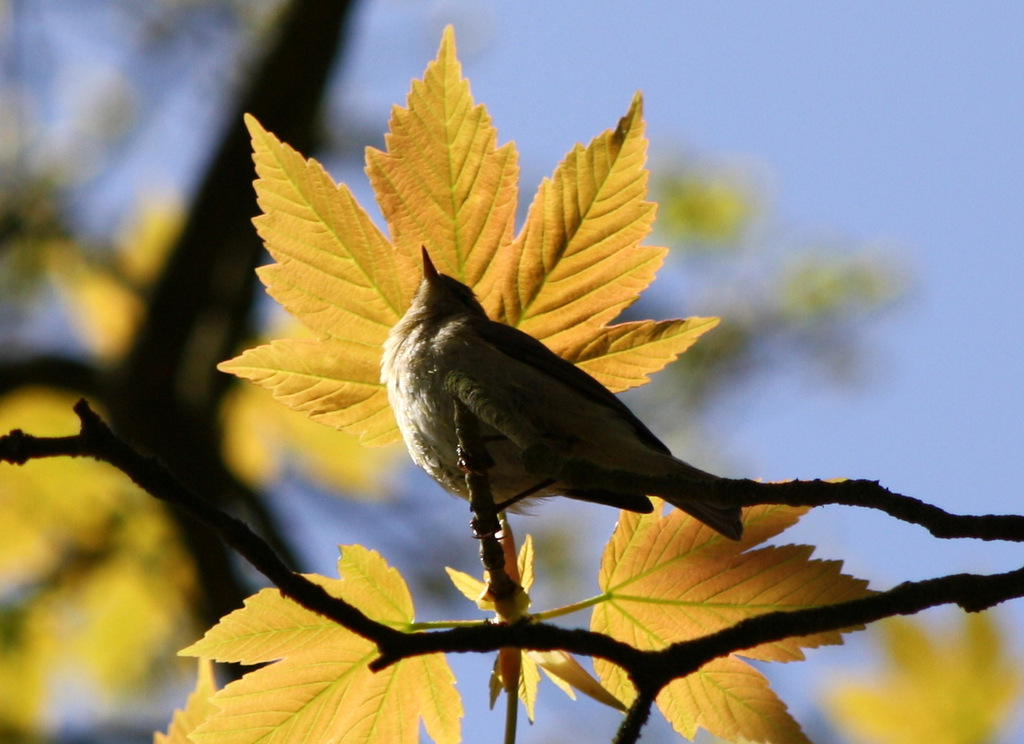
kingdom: Animalia
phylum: Chordata
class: Aves
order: Passeriformes
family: Phylloscopidae
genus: Phylloscopus
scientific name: Phylloscopus collybita
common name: Common chiffchaff
